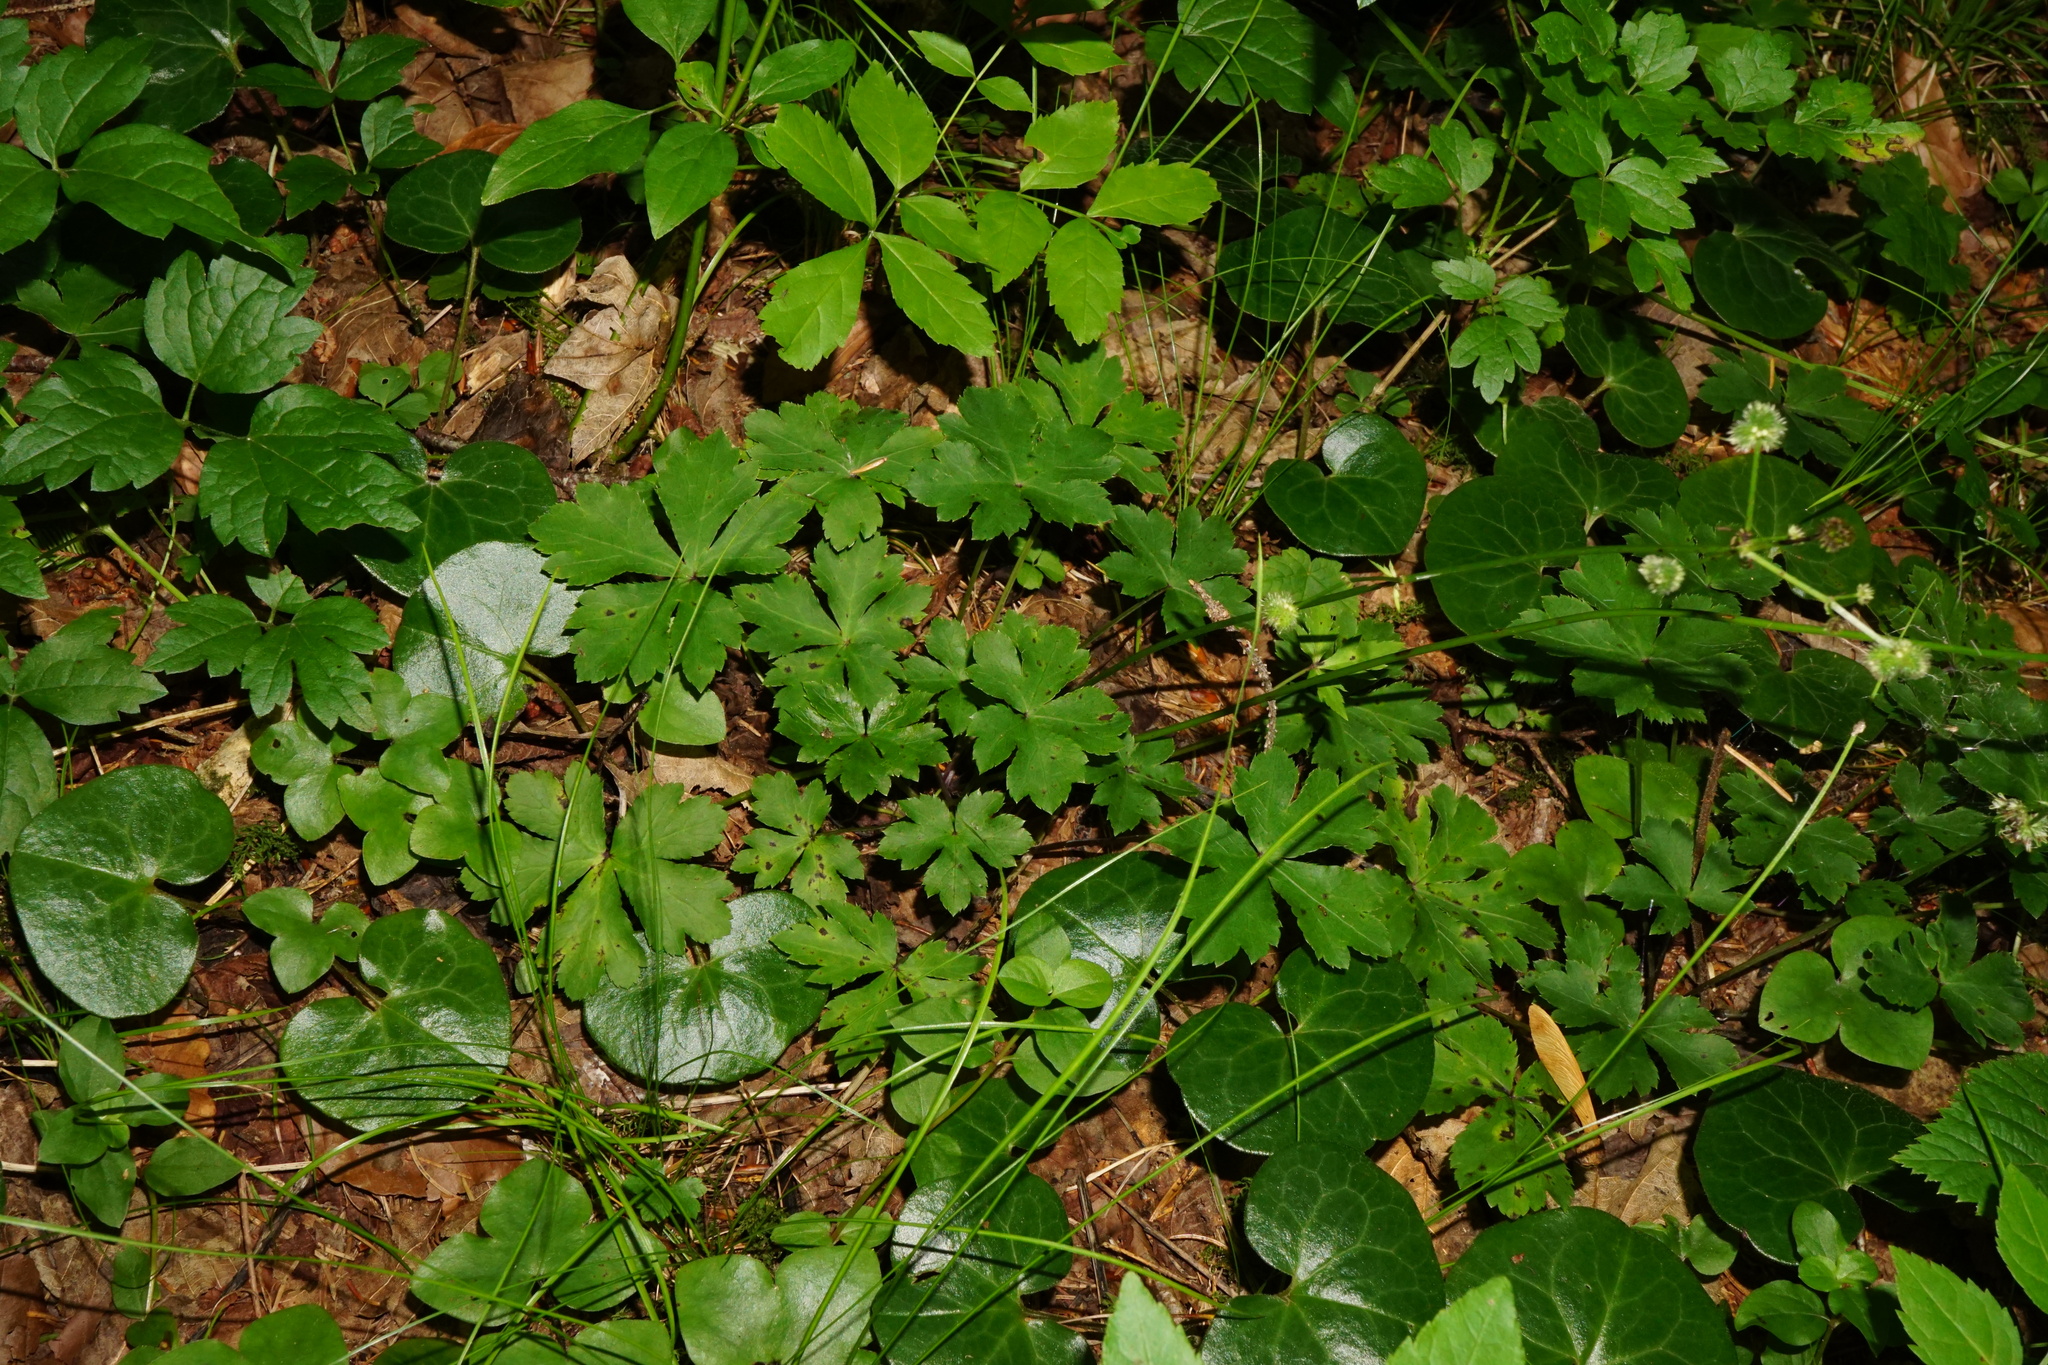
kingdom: Plantae
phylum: Tracheophyta
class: Magnoliopsida
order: Apiales
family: Apiaceae
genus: Sanicula
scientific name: Sanicula europaea
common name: Sanicle
